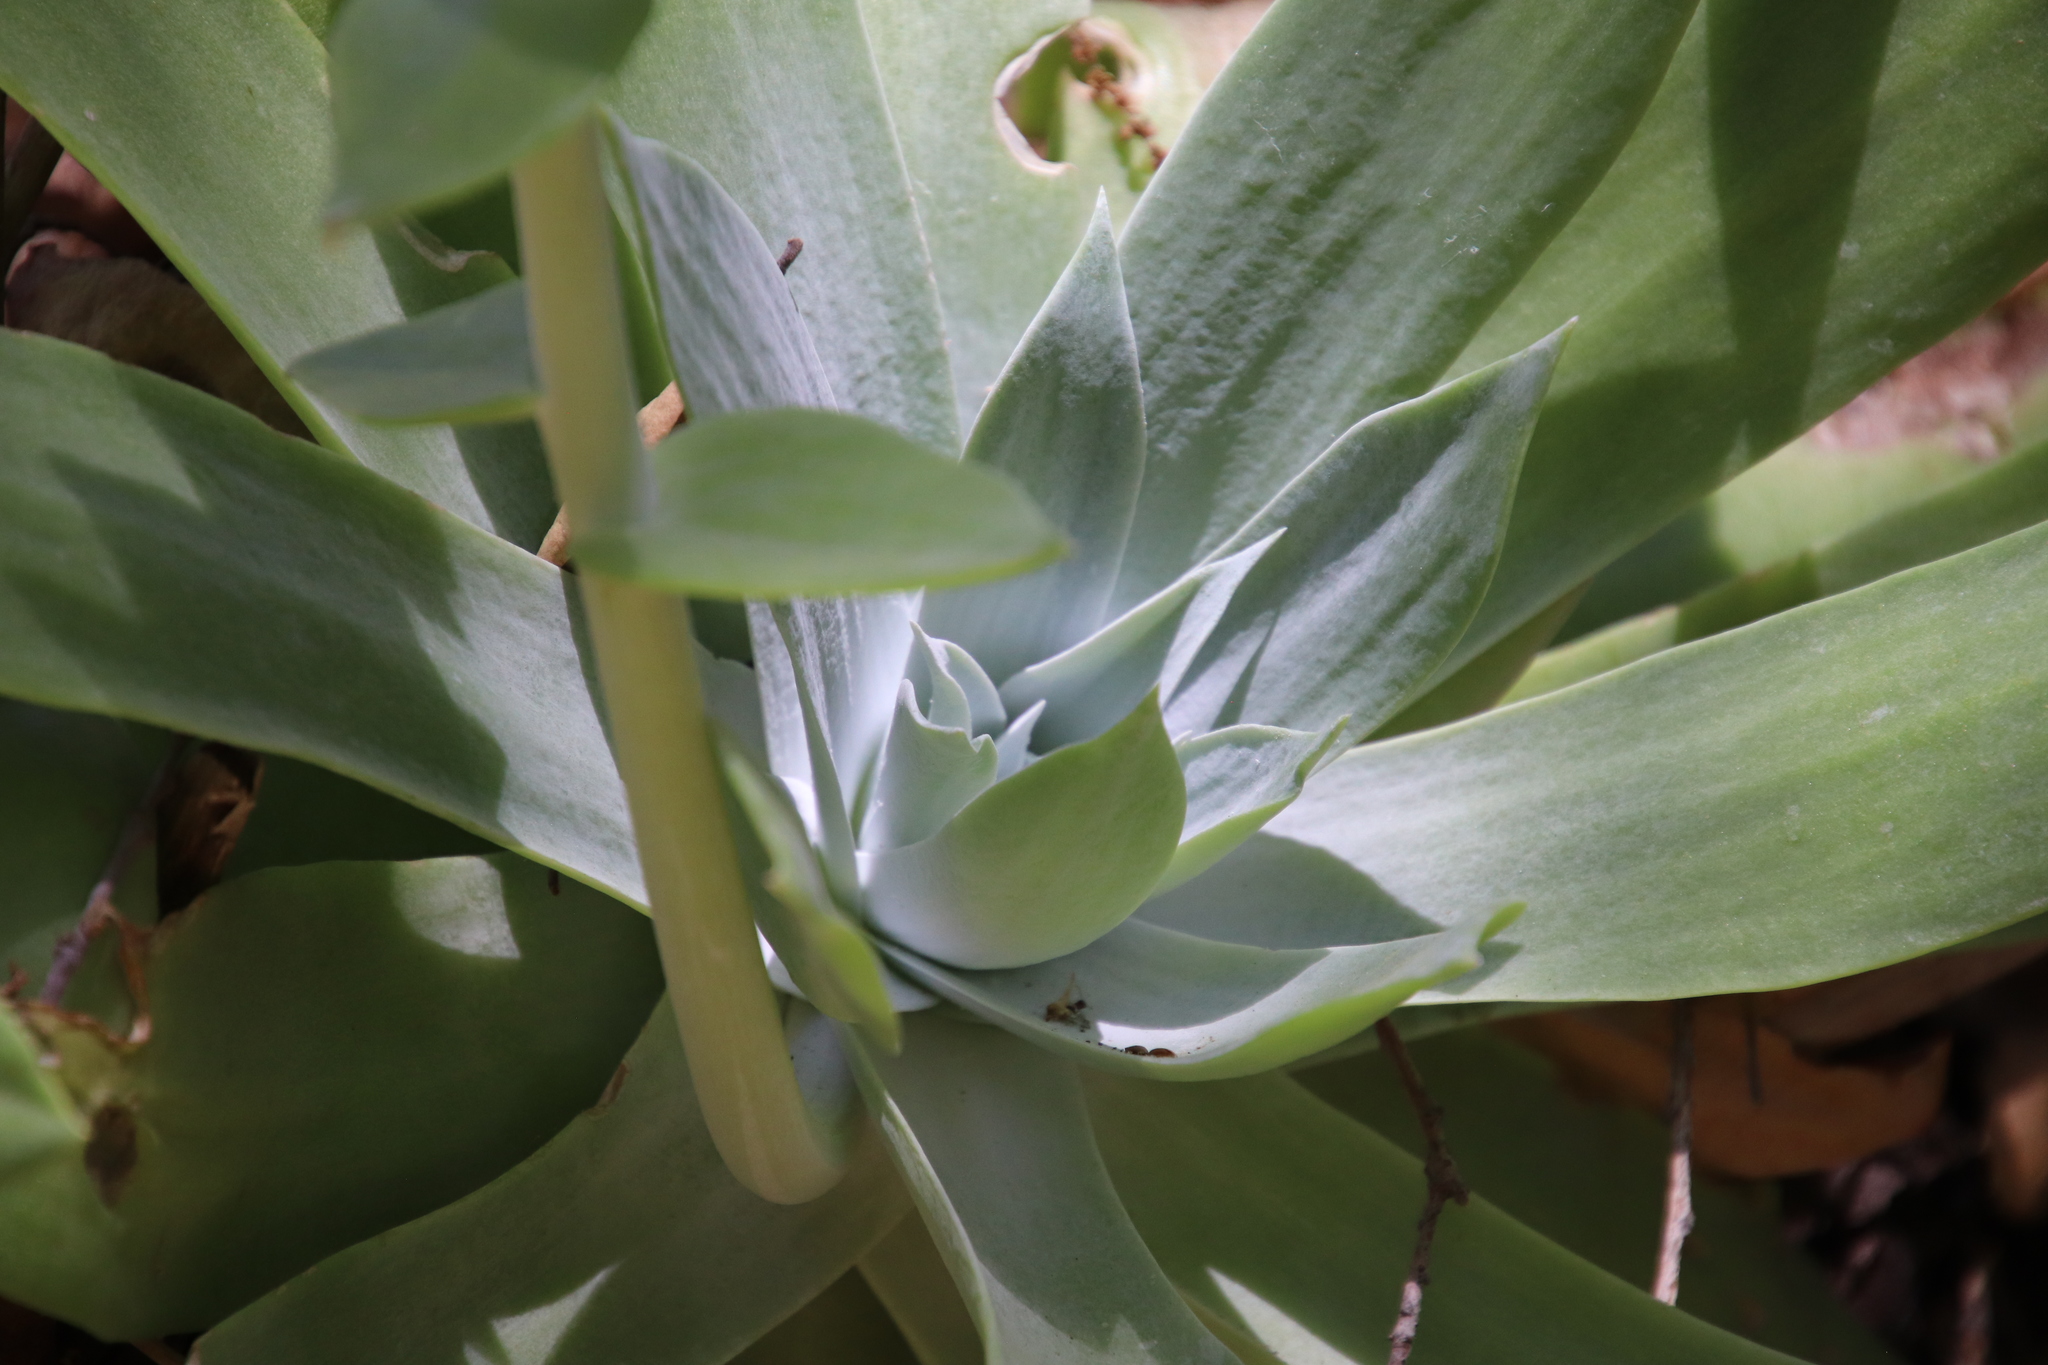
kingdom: Plantae
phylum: Tracheophyta
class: Magnoliopsida
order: Saxifragales
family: Crassulaceae
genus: Dudleya
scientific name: Dudleya pulverulenta
